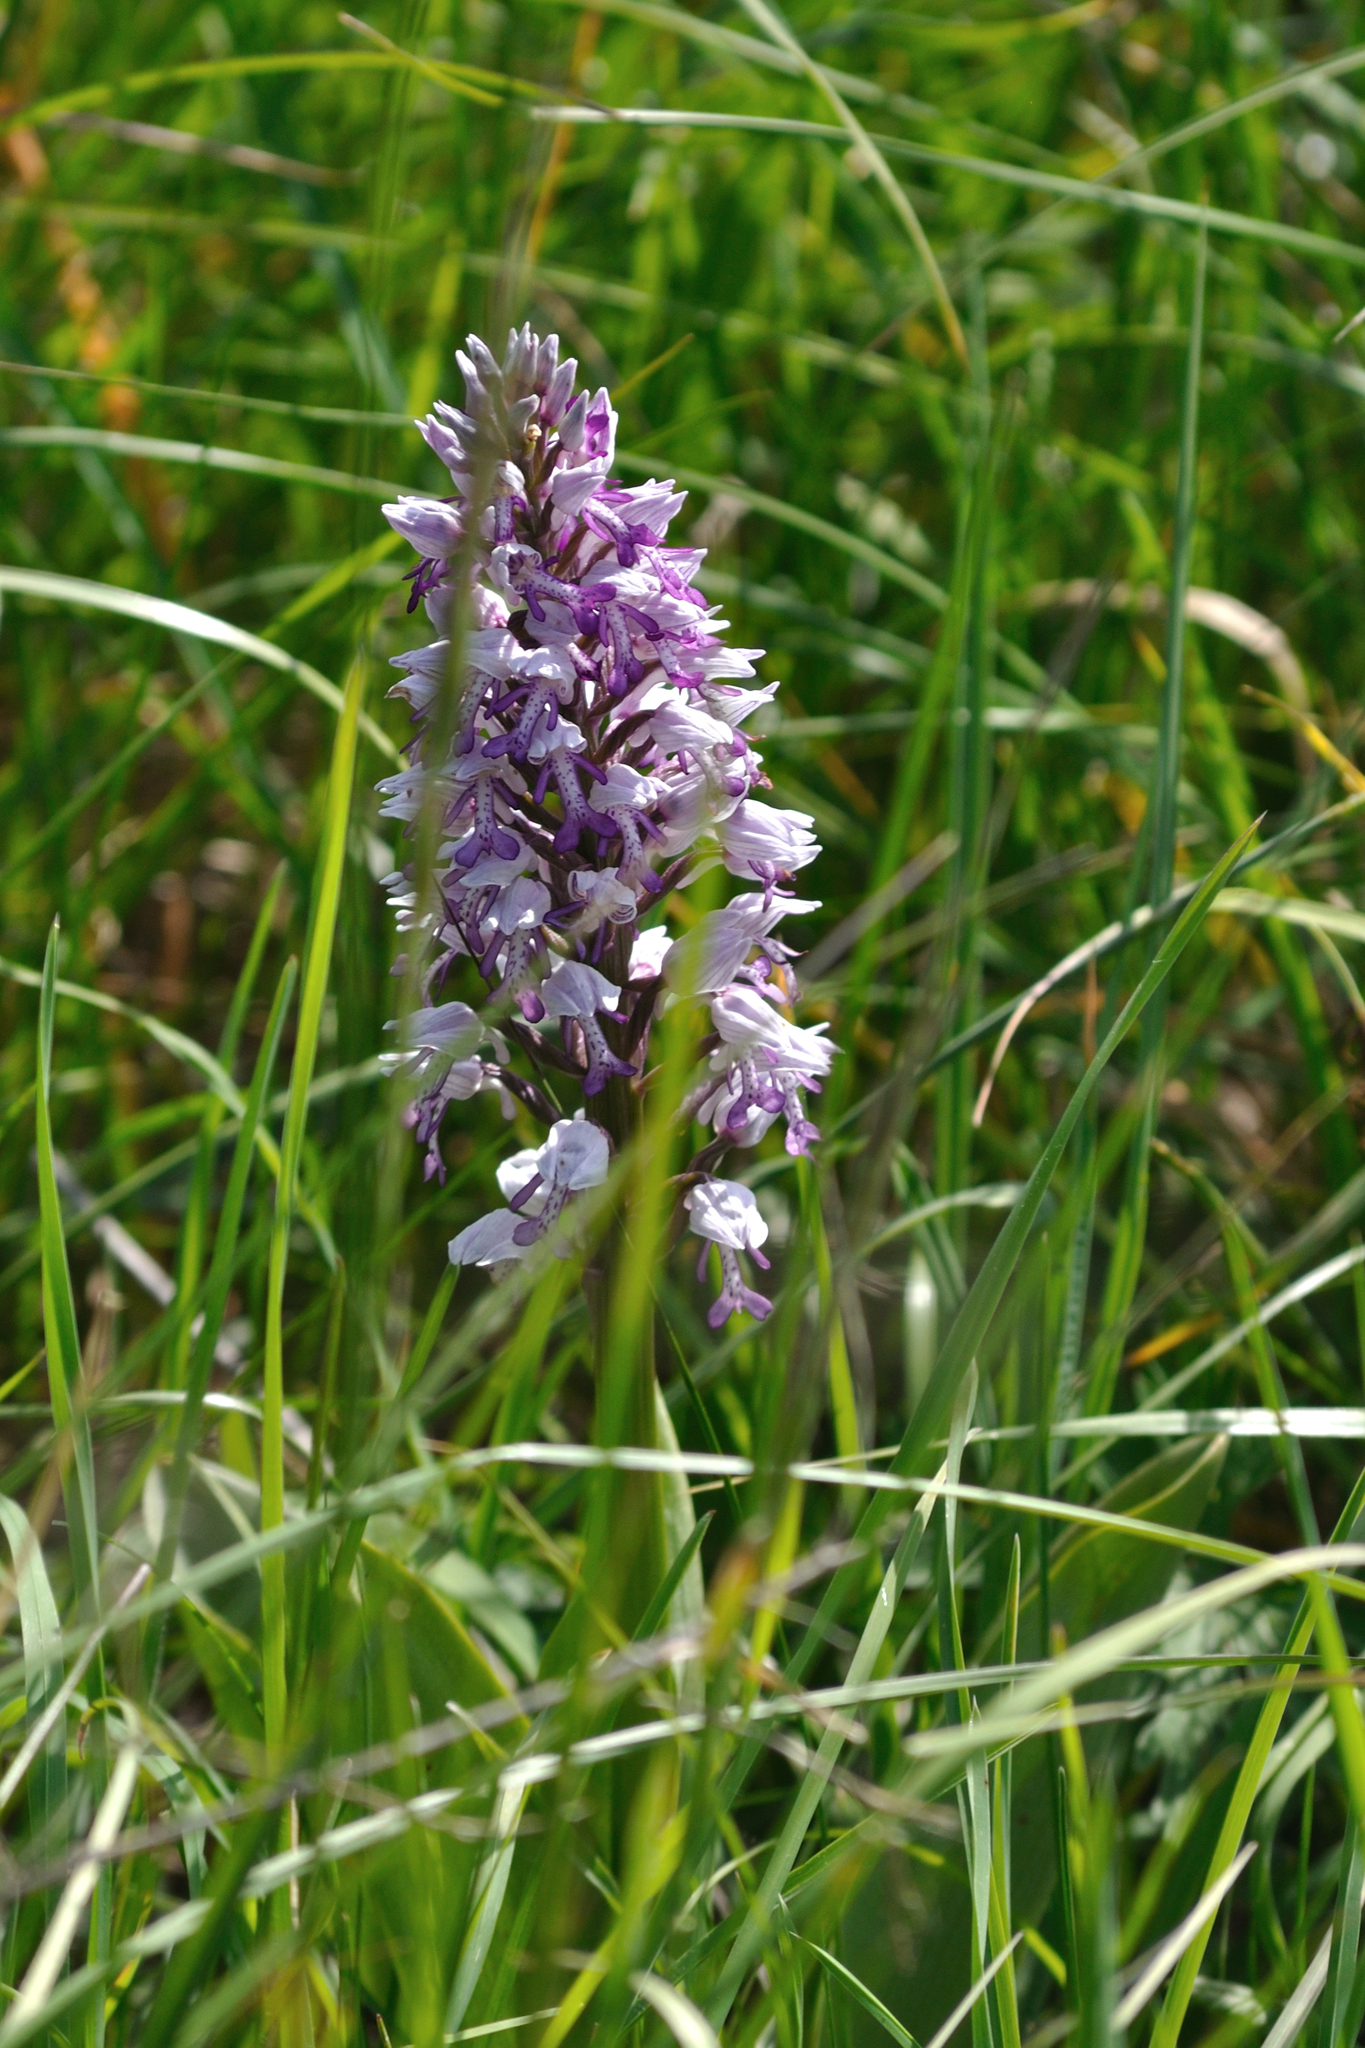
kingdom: Plantae
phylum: Tracheophyta
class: Liliopsida
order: Asparagales
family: Orchidaceae
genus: Orchis
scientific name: Orchis militaris
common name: Military orchid
